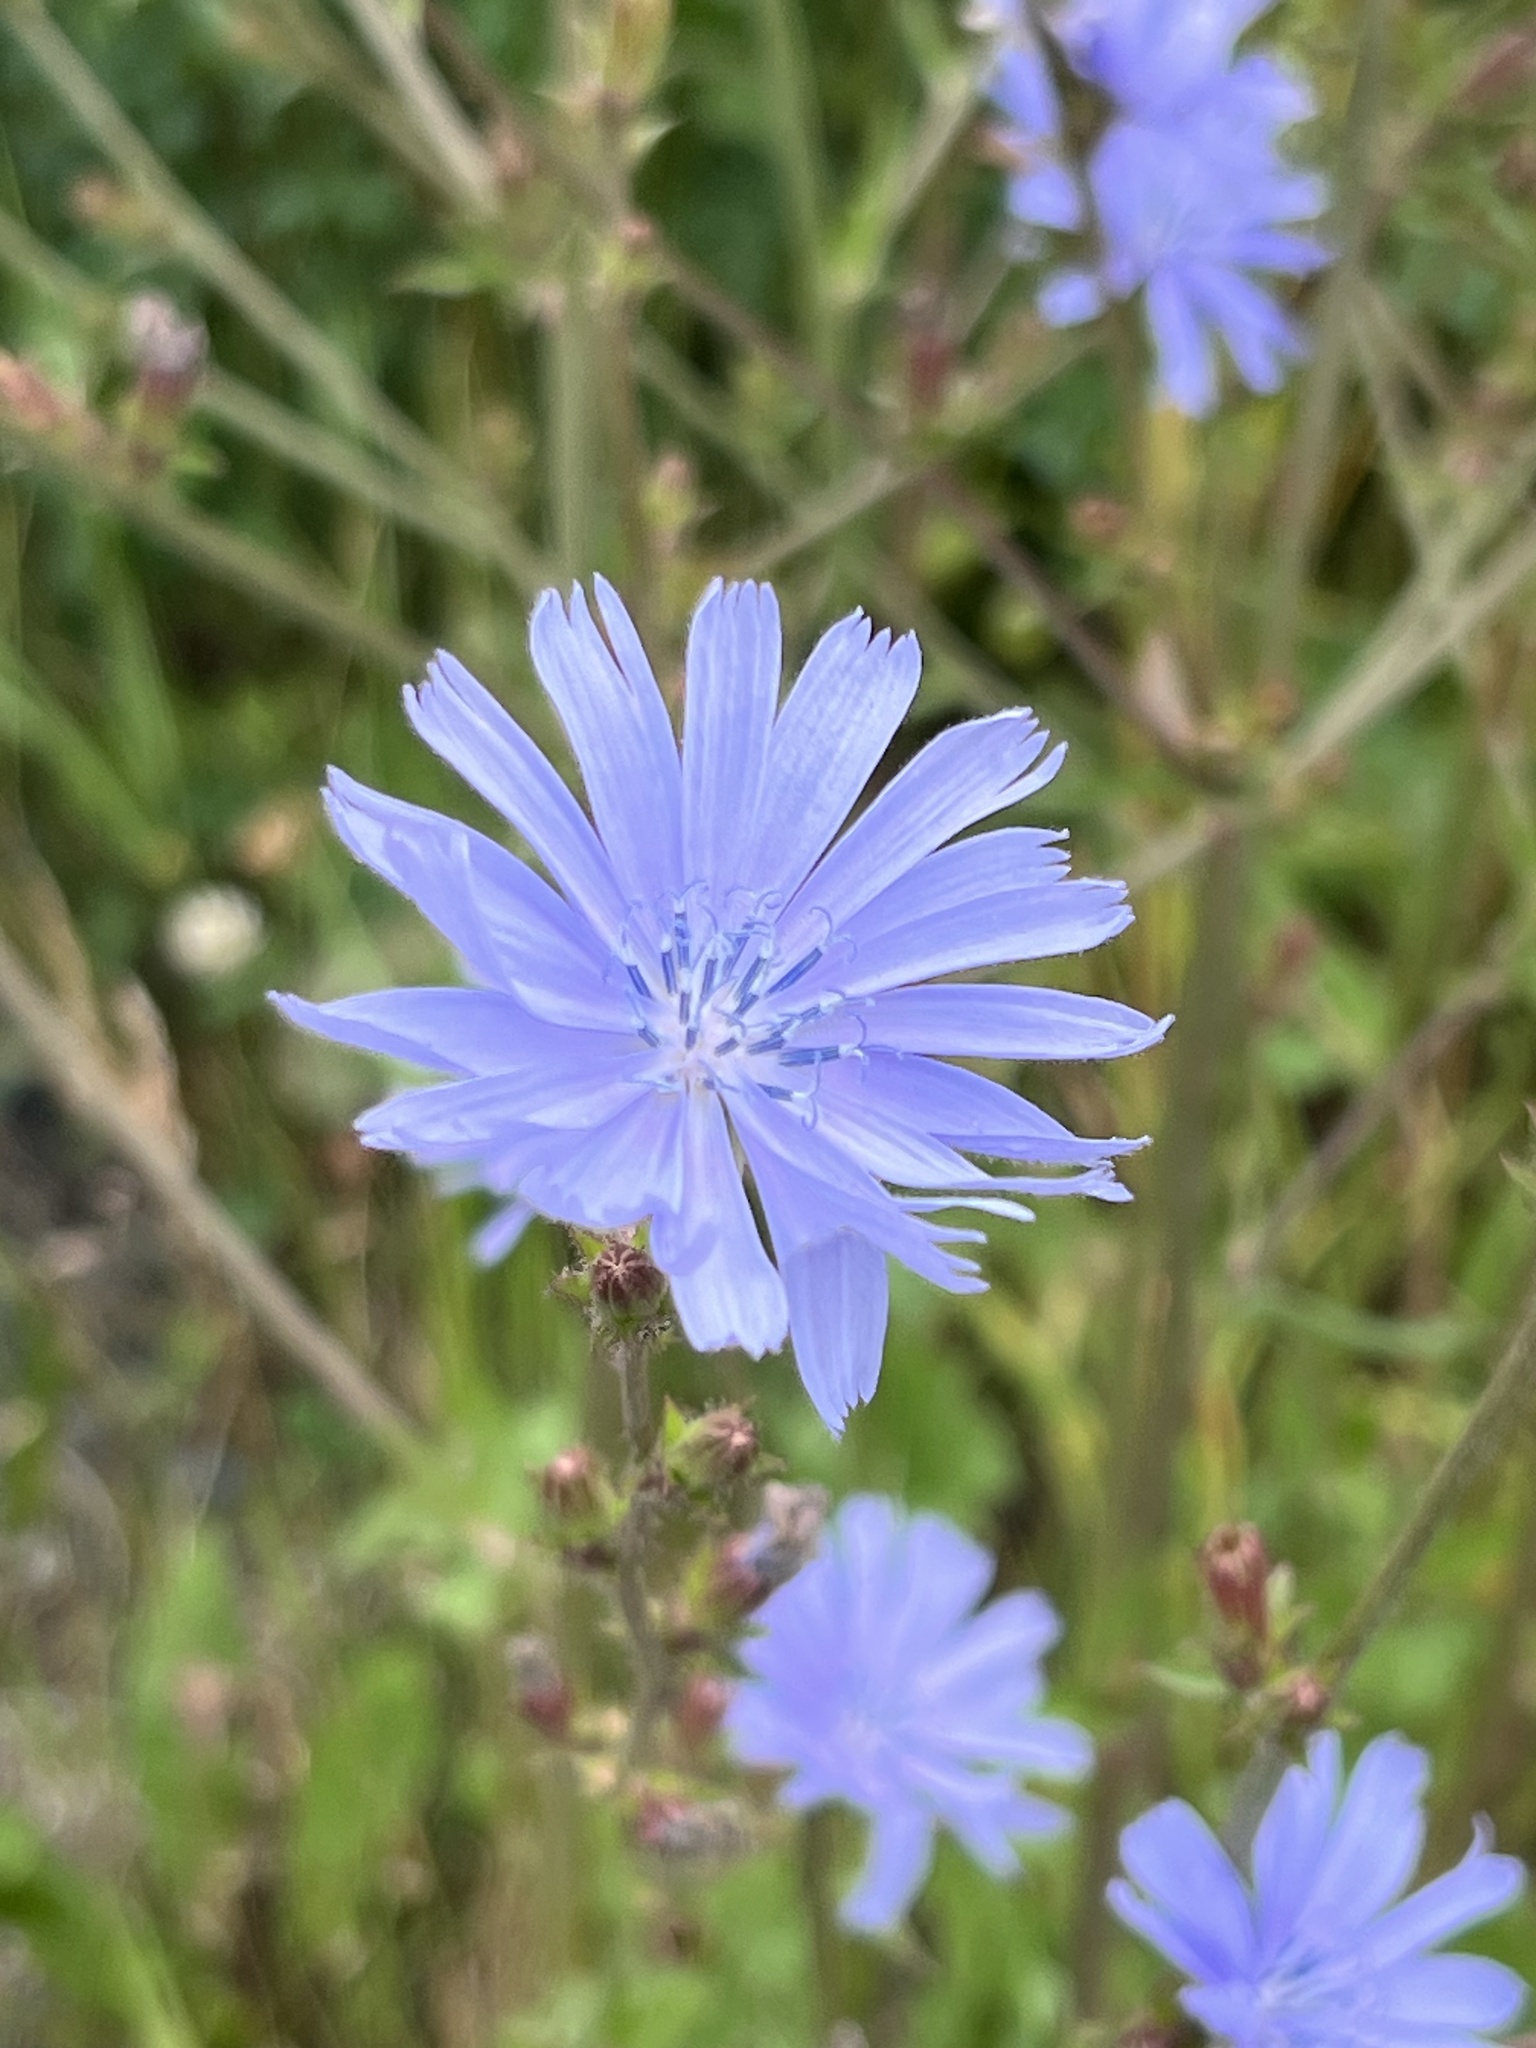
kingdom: Plantae
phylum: Tracheophyta
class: Magnoliopsida
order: Asterales
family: Asteraceae
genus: Cichorium
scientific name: Cichorium intybus
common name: Chicory
